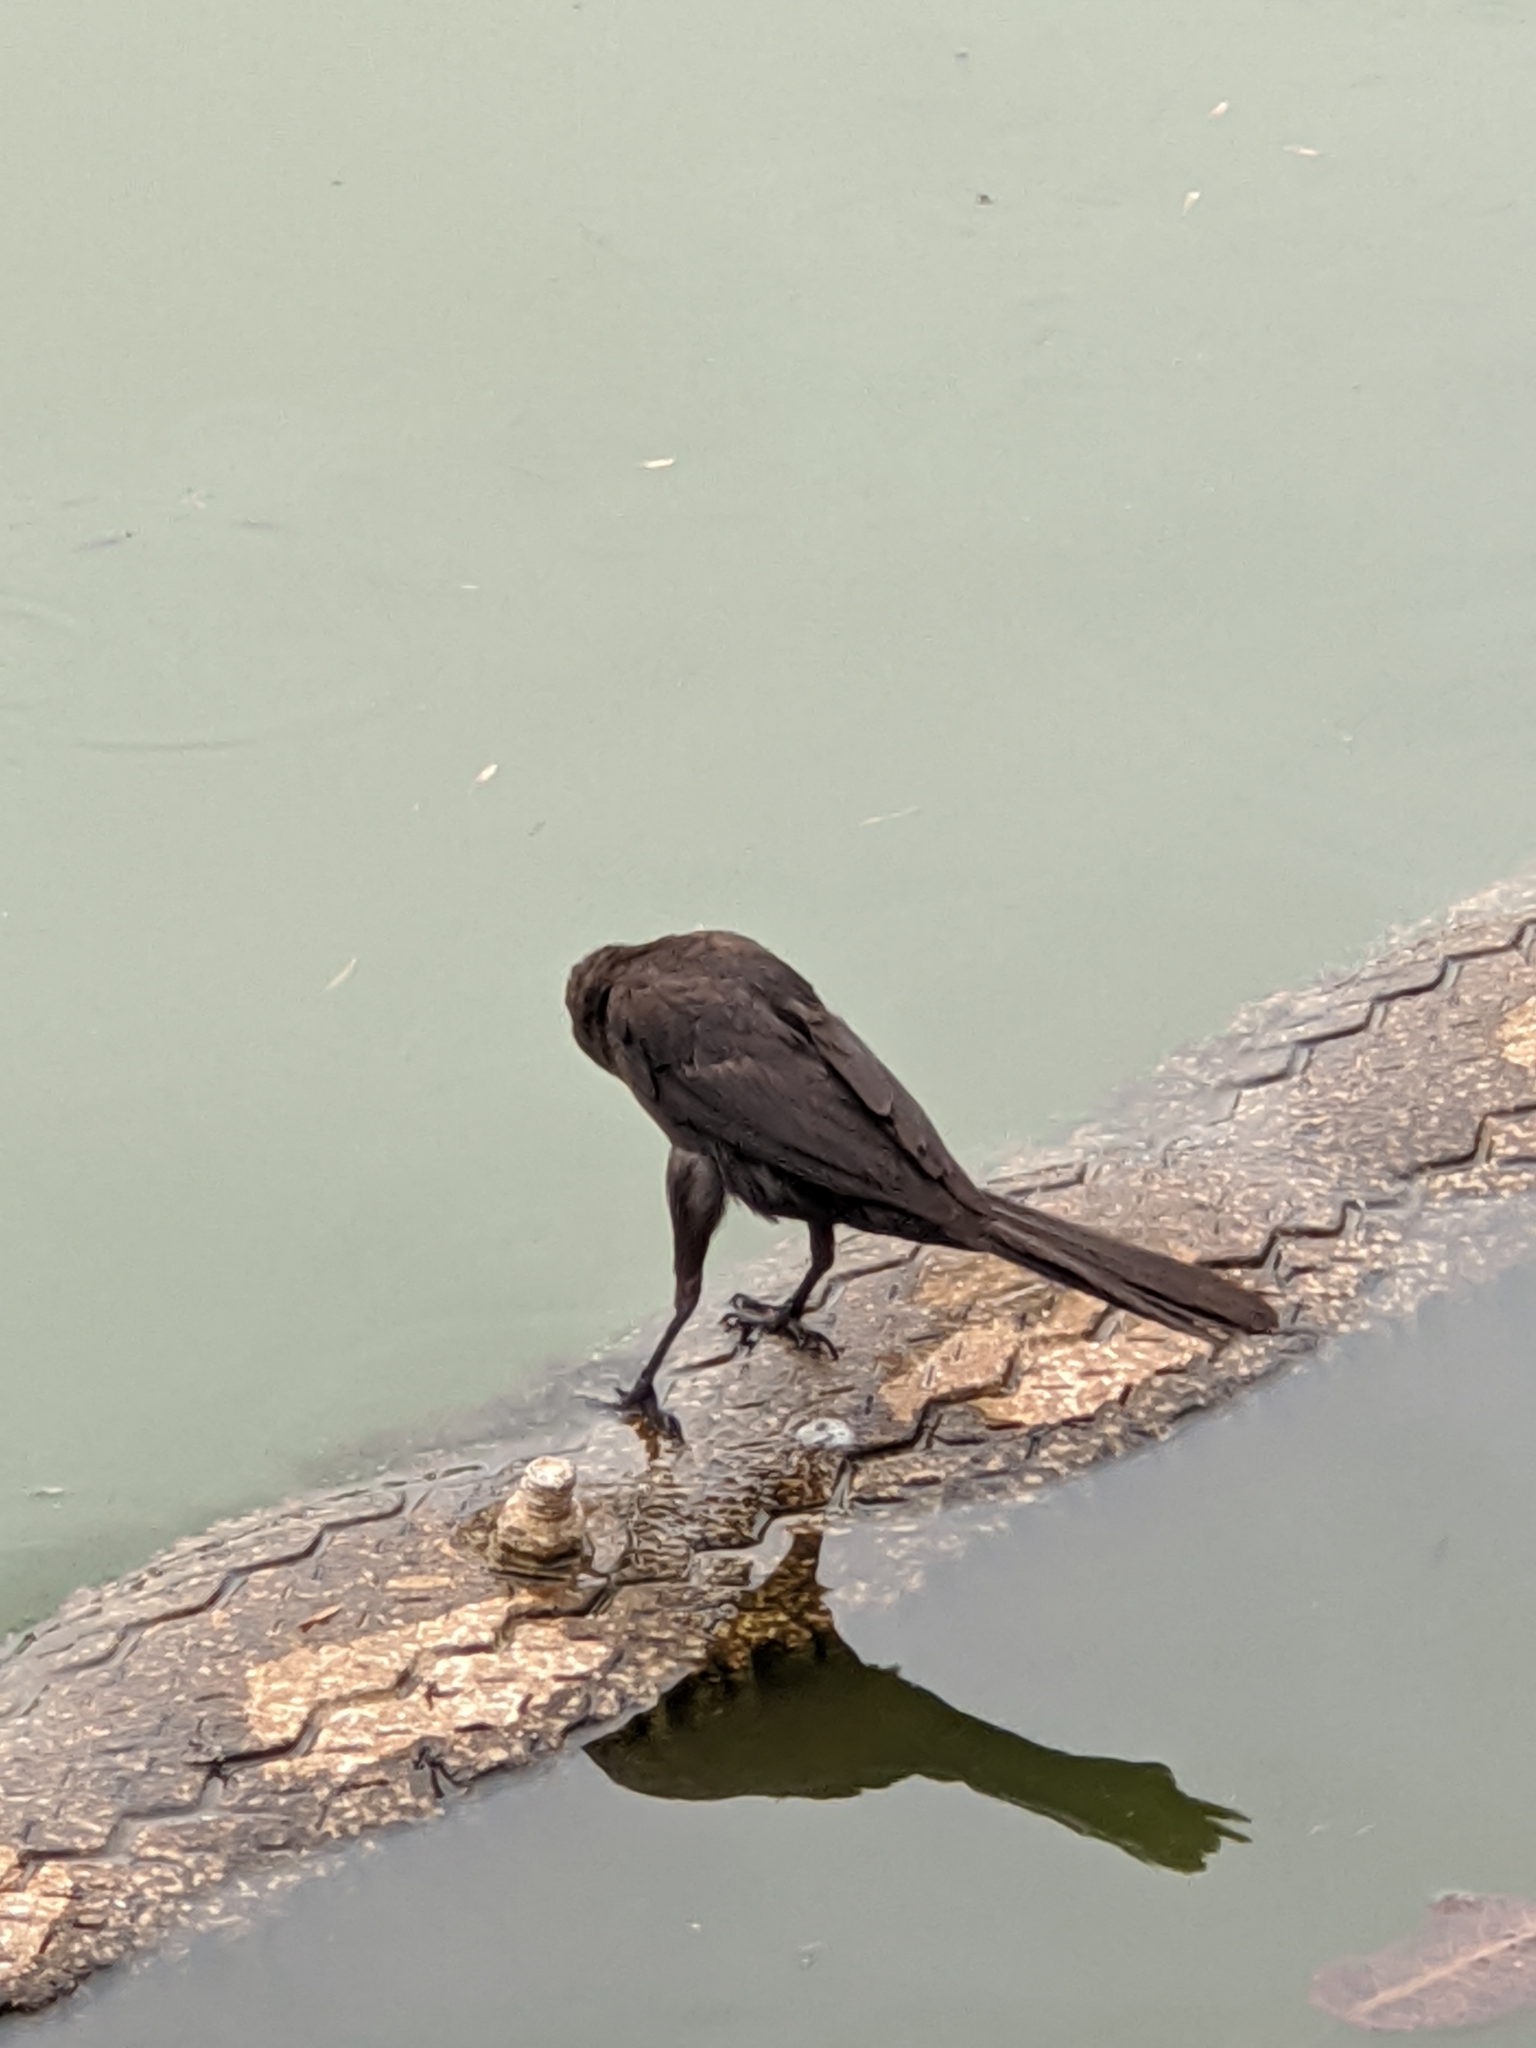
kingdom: Animalia
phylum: Chordata
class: Aves
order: Passeriformes
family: Icteridae
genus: Quiscalus
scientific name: Quiscalus mexicanus
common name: Great-tailed grackle
